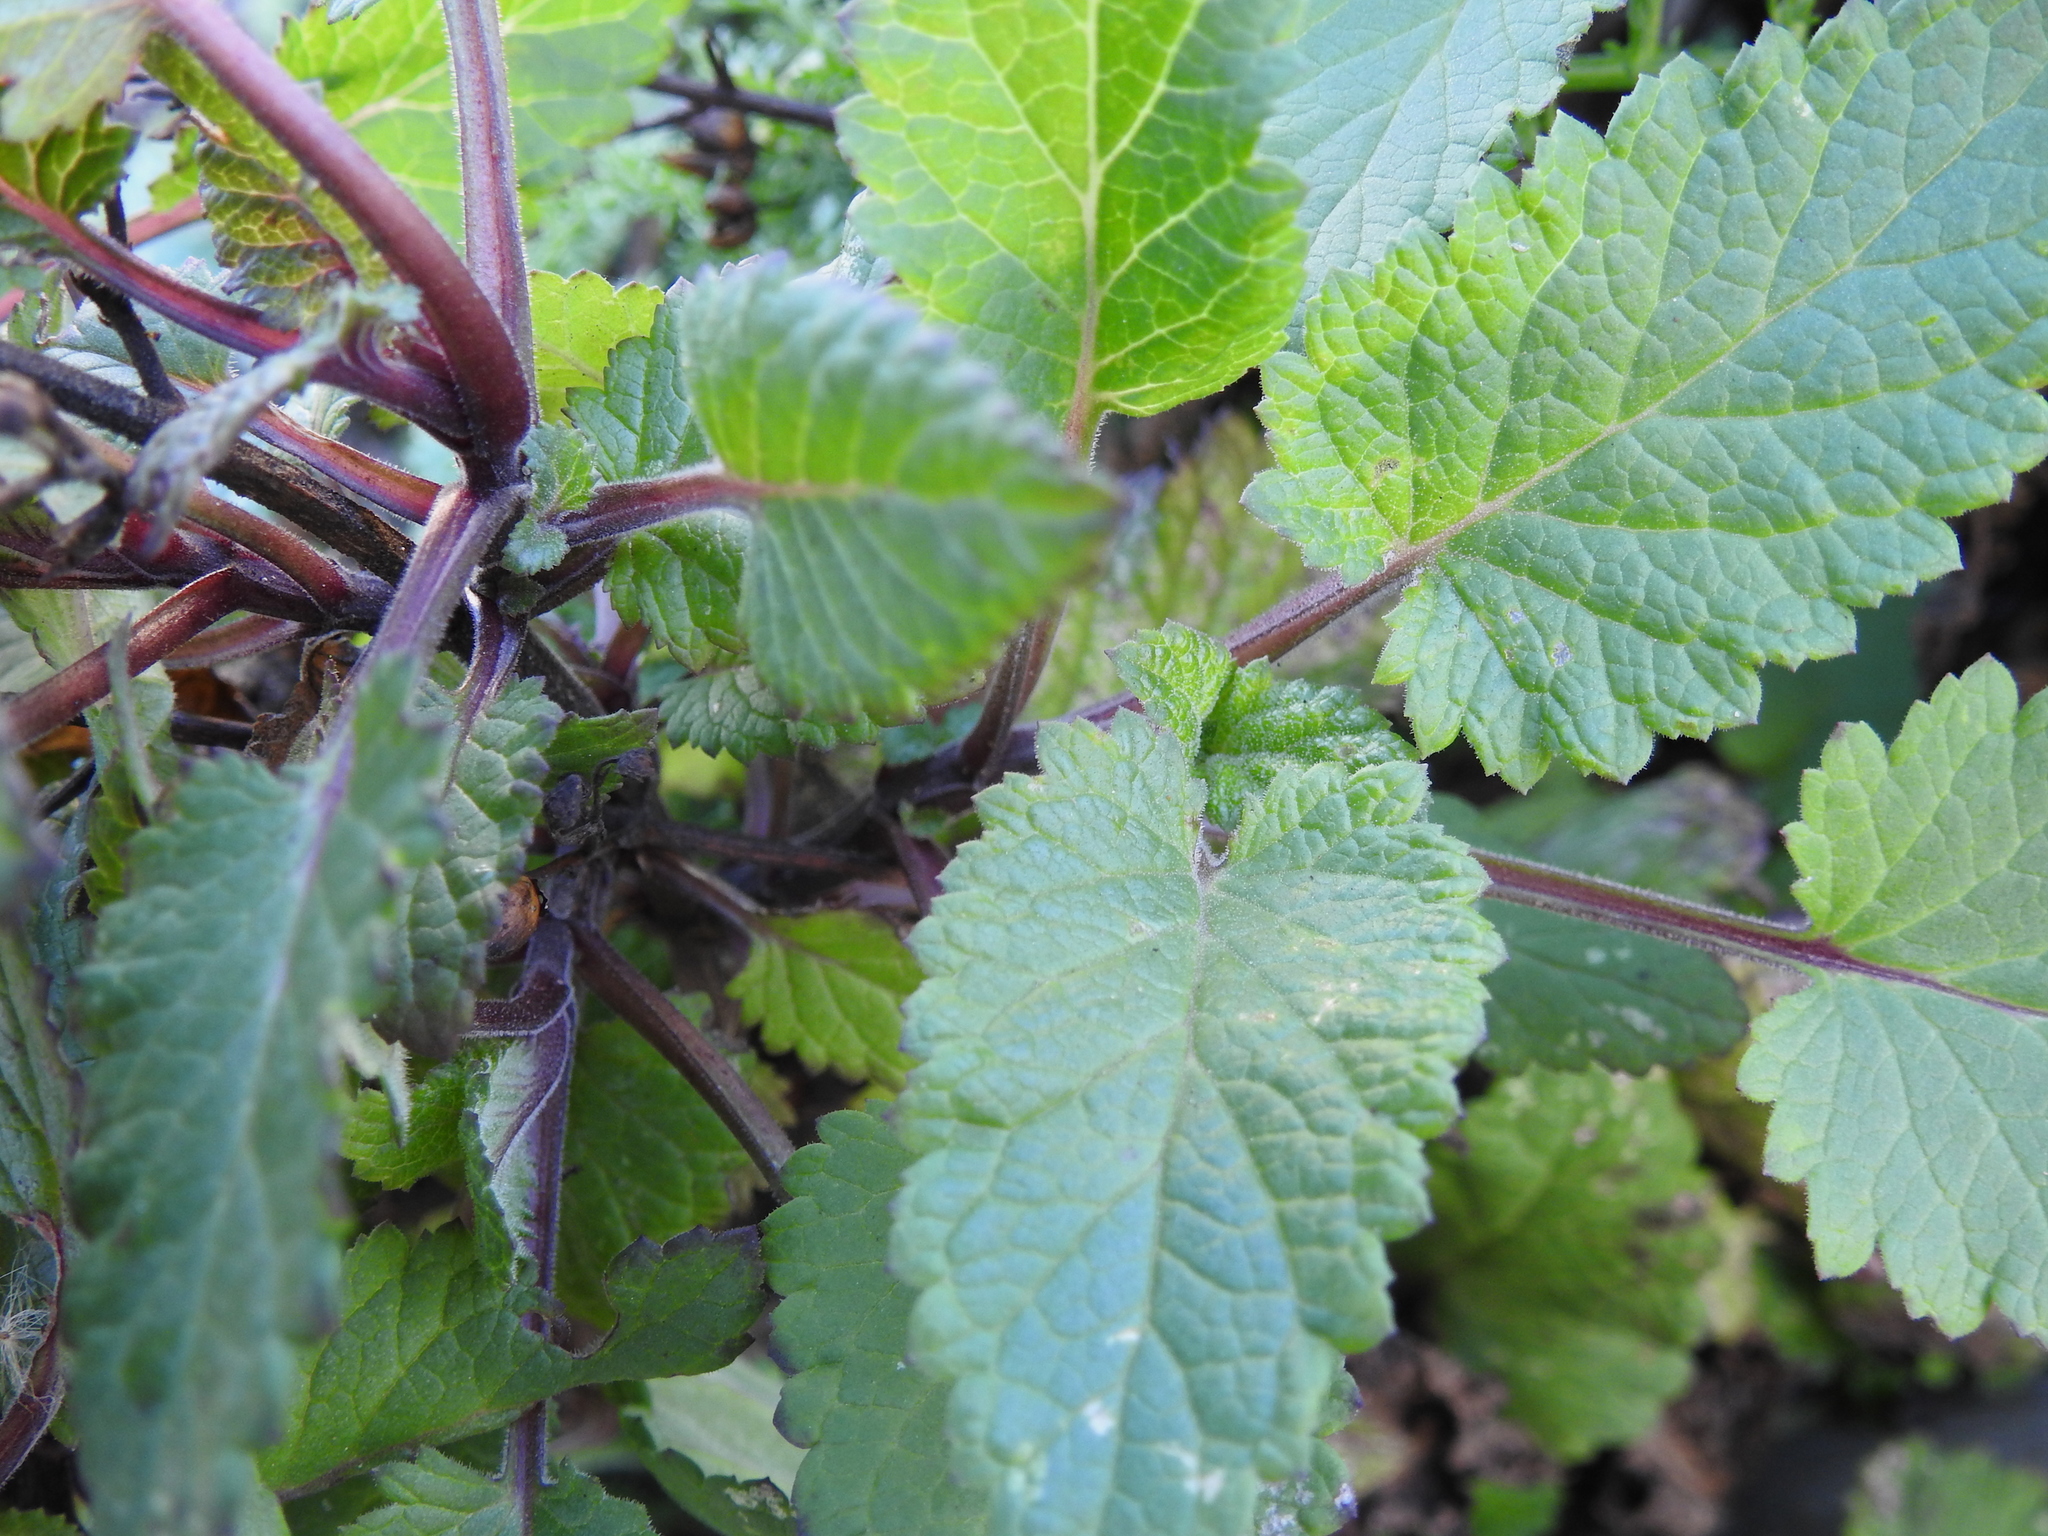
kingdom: Plantae
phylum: Tracheophyta
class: Magnoliopsida
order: Lamiales
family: Scrophulariaceae
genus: Scrophularia
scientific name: Scrophularia californica
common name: California figwort
